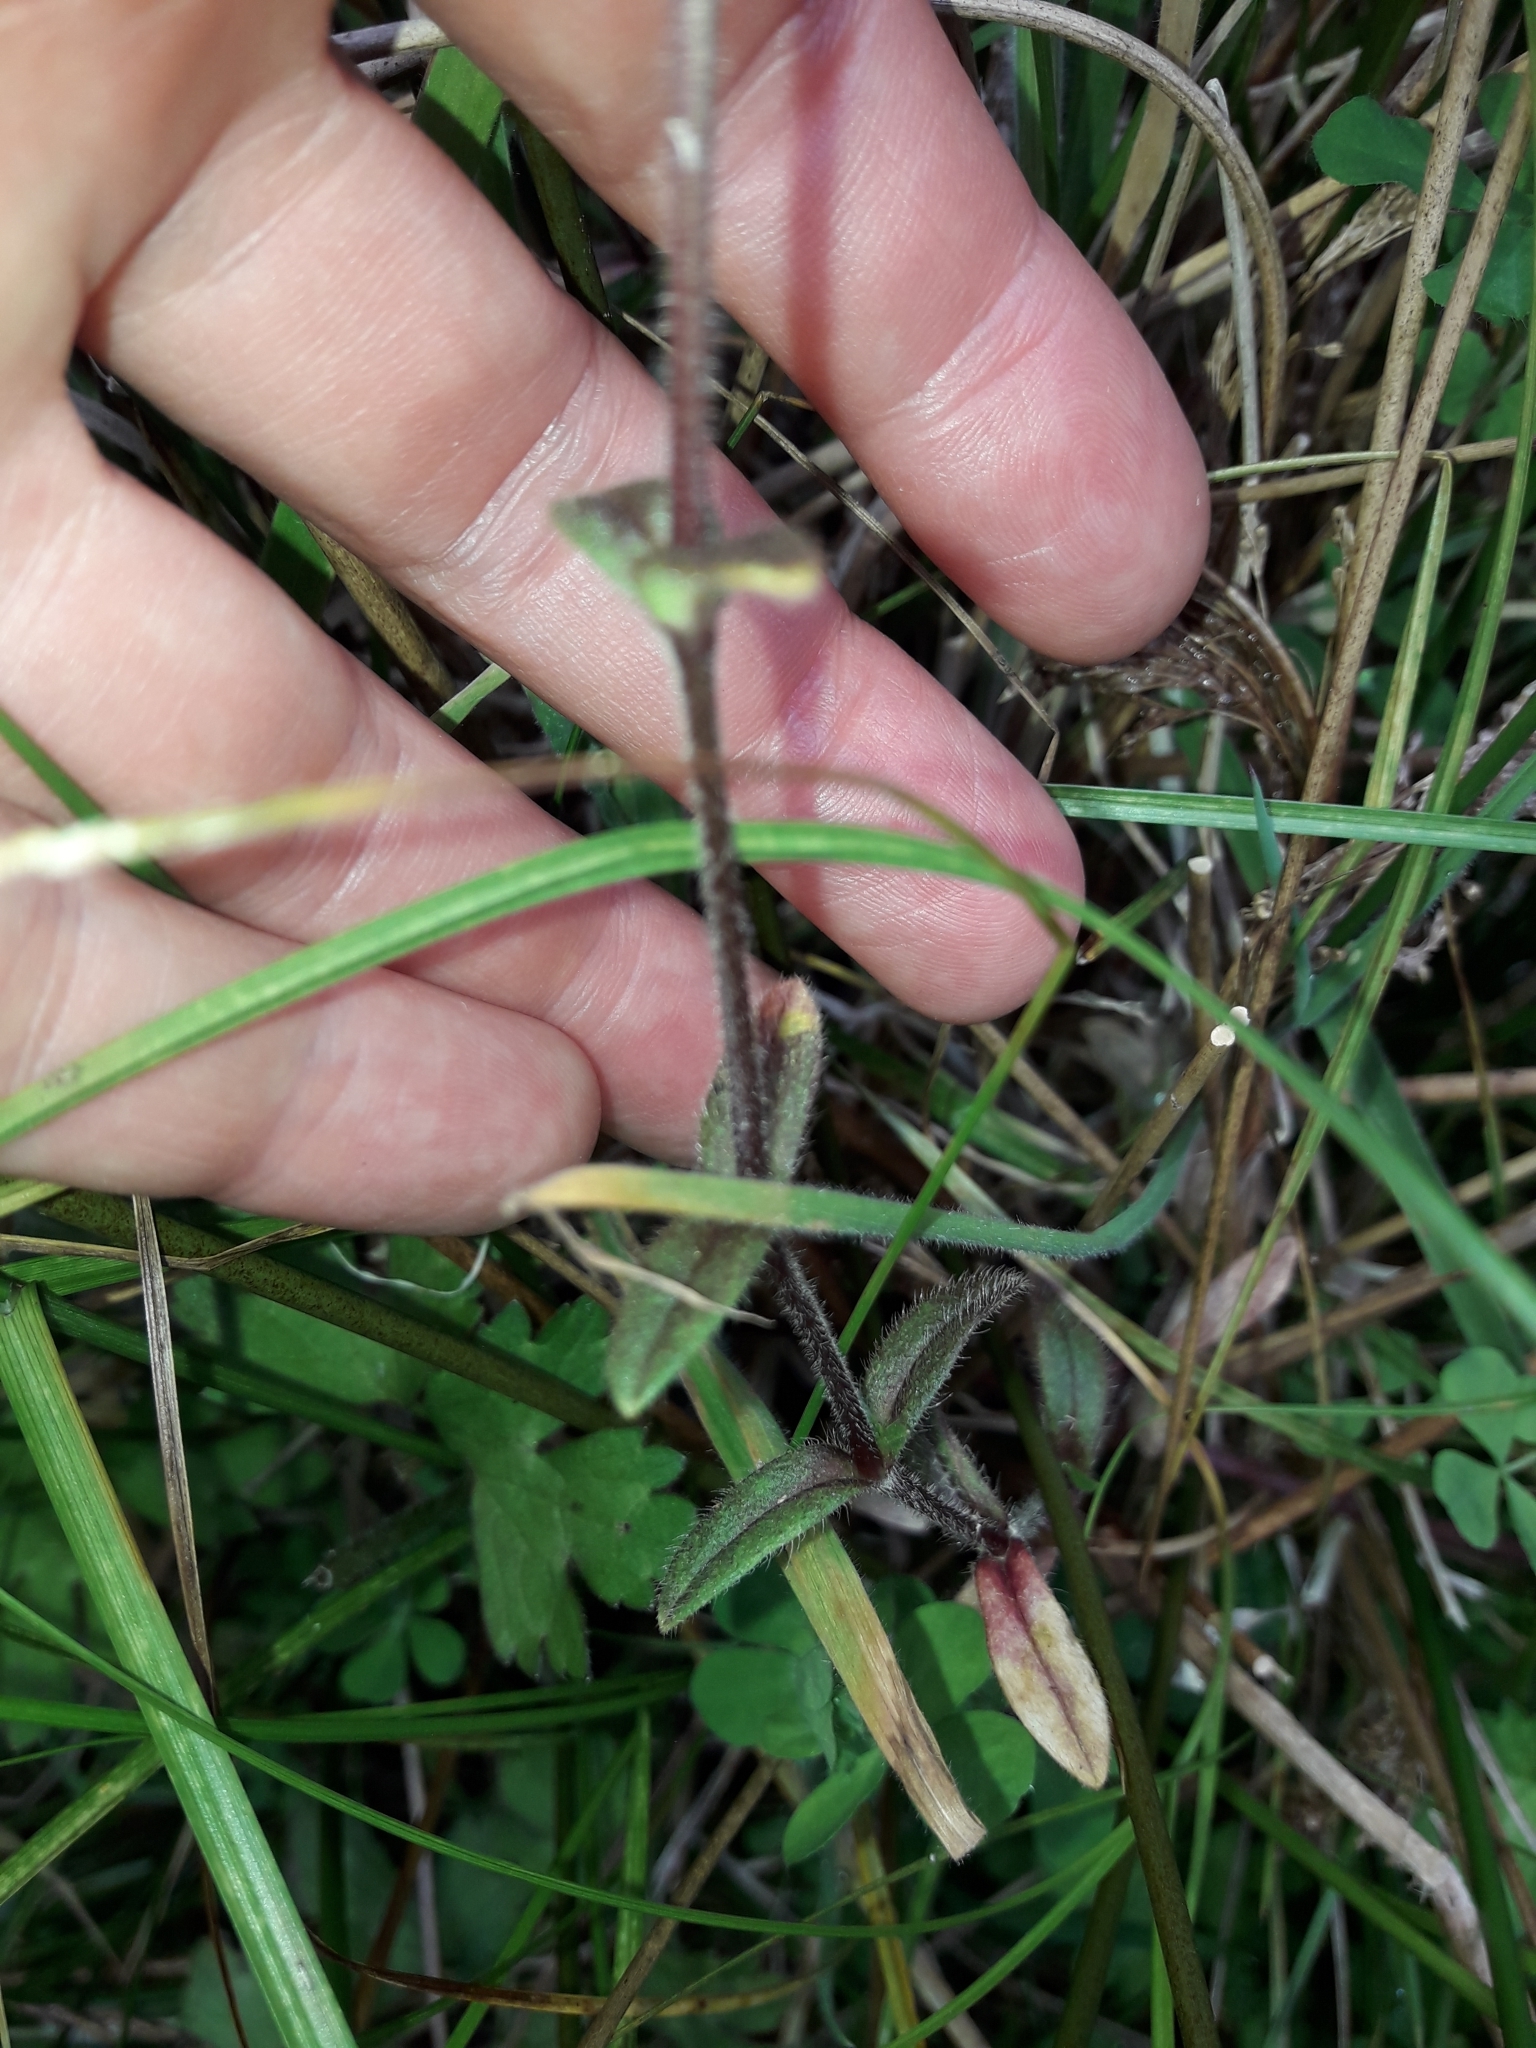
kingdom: Plantae
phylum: Tracheophyta
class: Magnoliopsida
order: Caryophyllales
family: Caryophyllaceae
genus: Cerastium
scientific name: Cerastium fontanum
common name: Common mouse-ear
